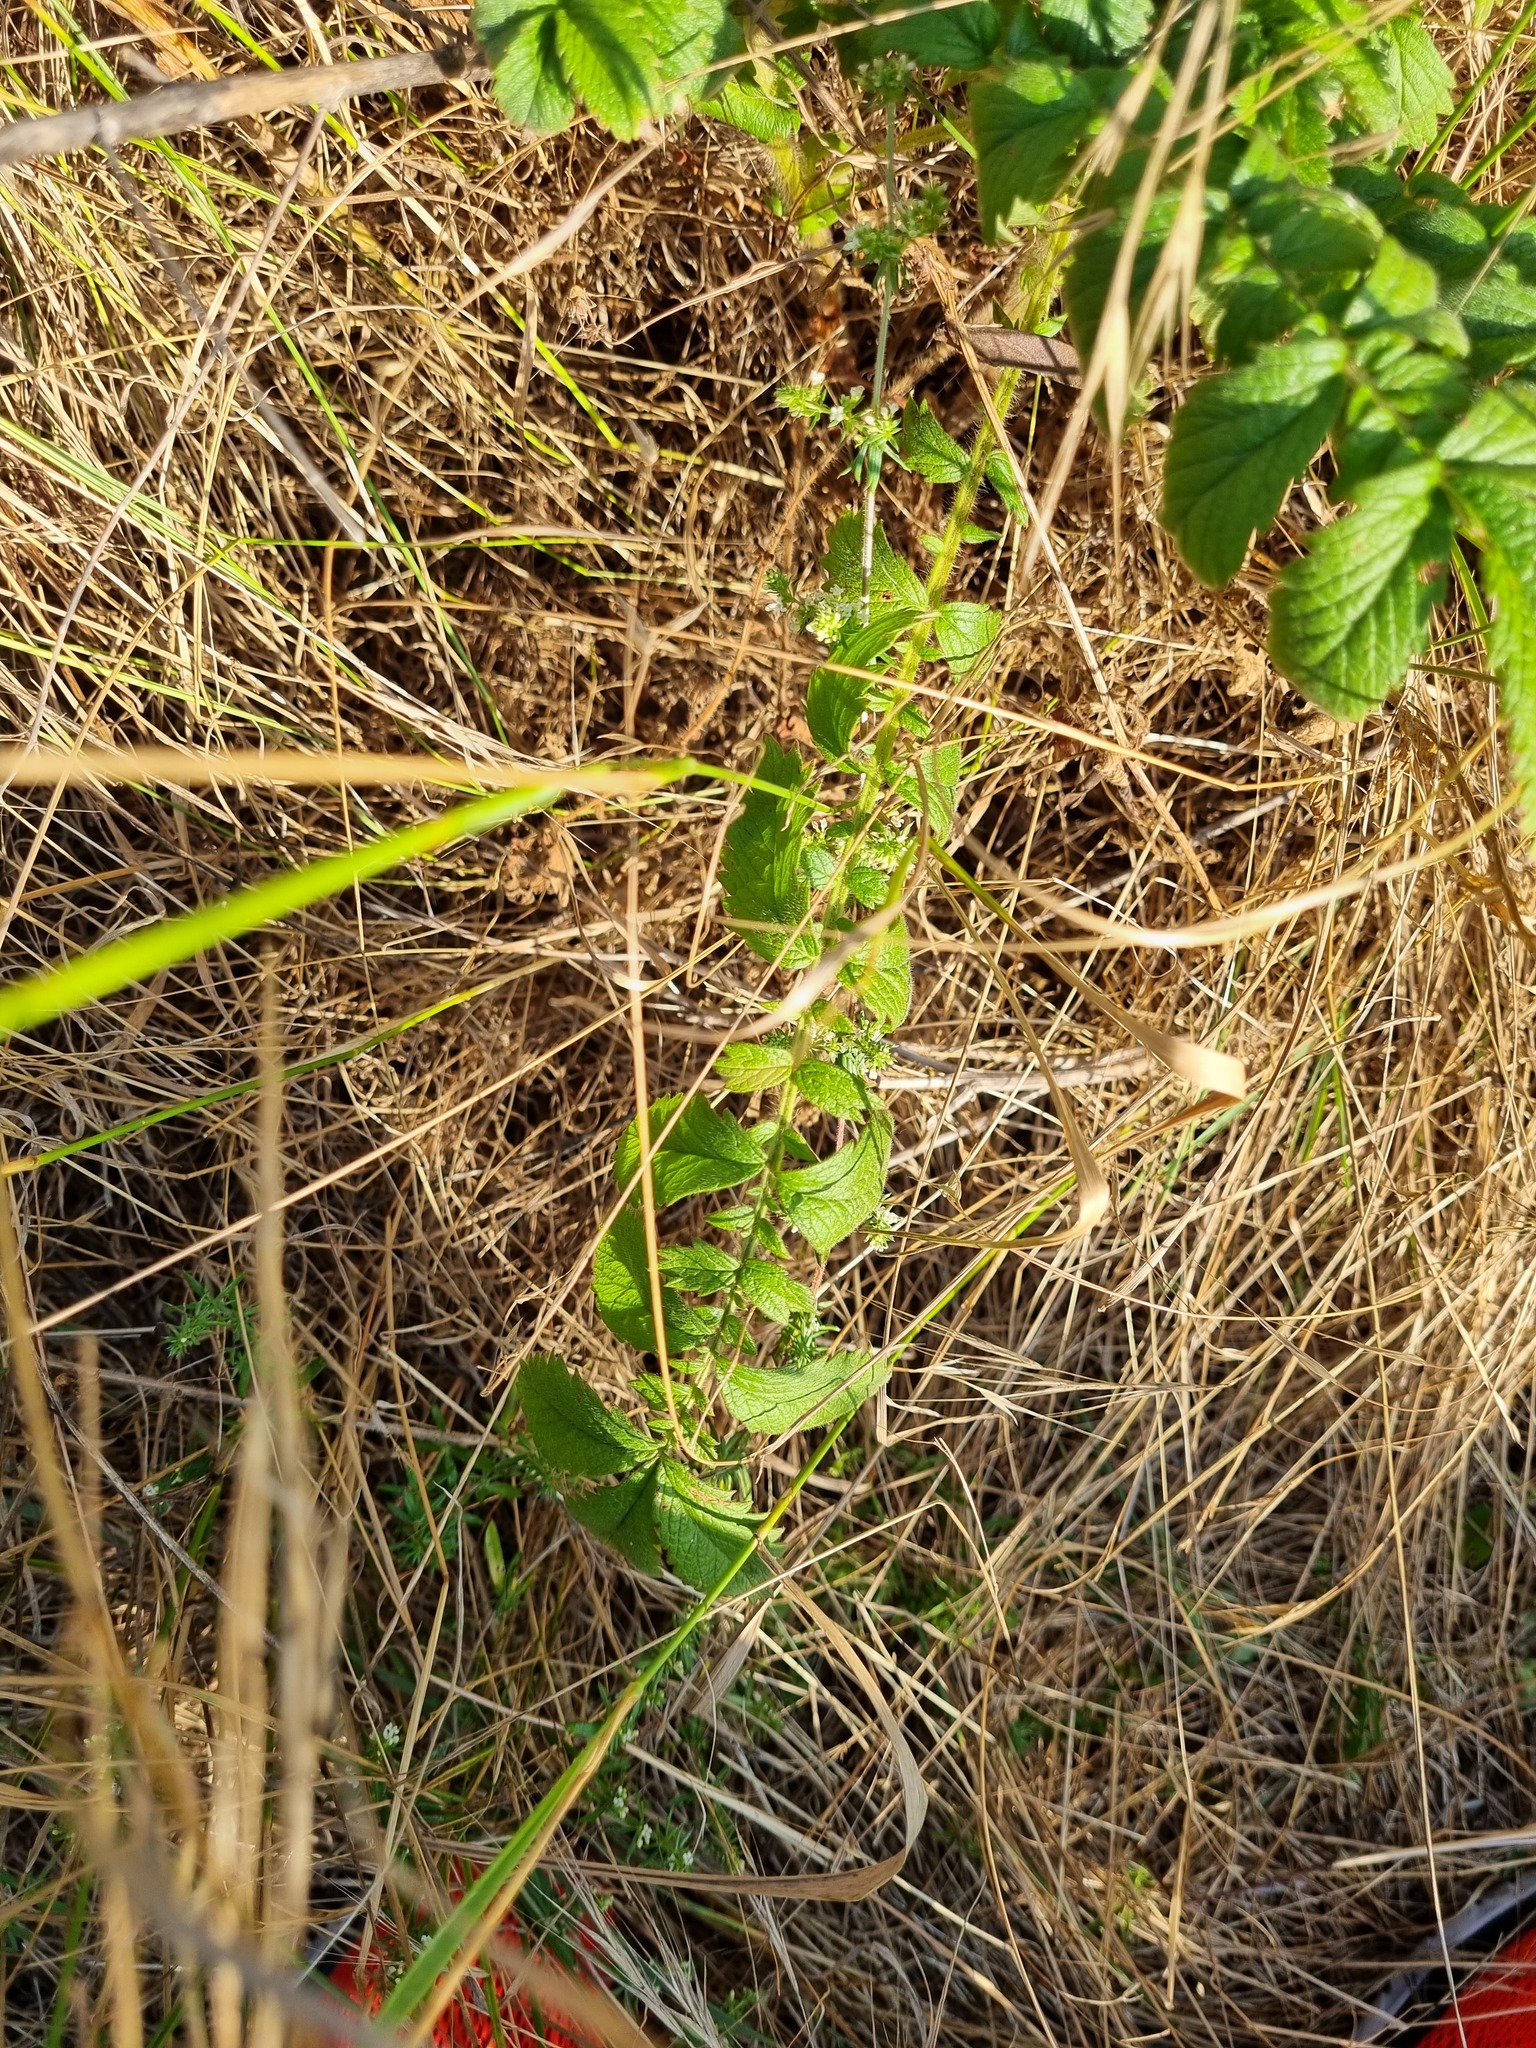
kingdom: Plantae
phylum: Tracheophyta
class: Magnoliopsida
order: Rosales
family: Rosaceae
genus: Agrimonia
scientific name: Agrimonia eupatoria
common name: Agrimony
